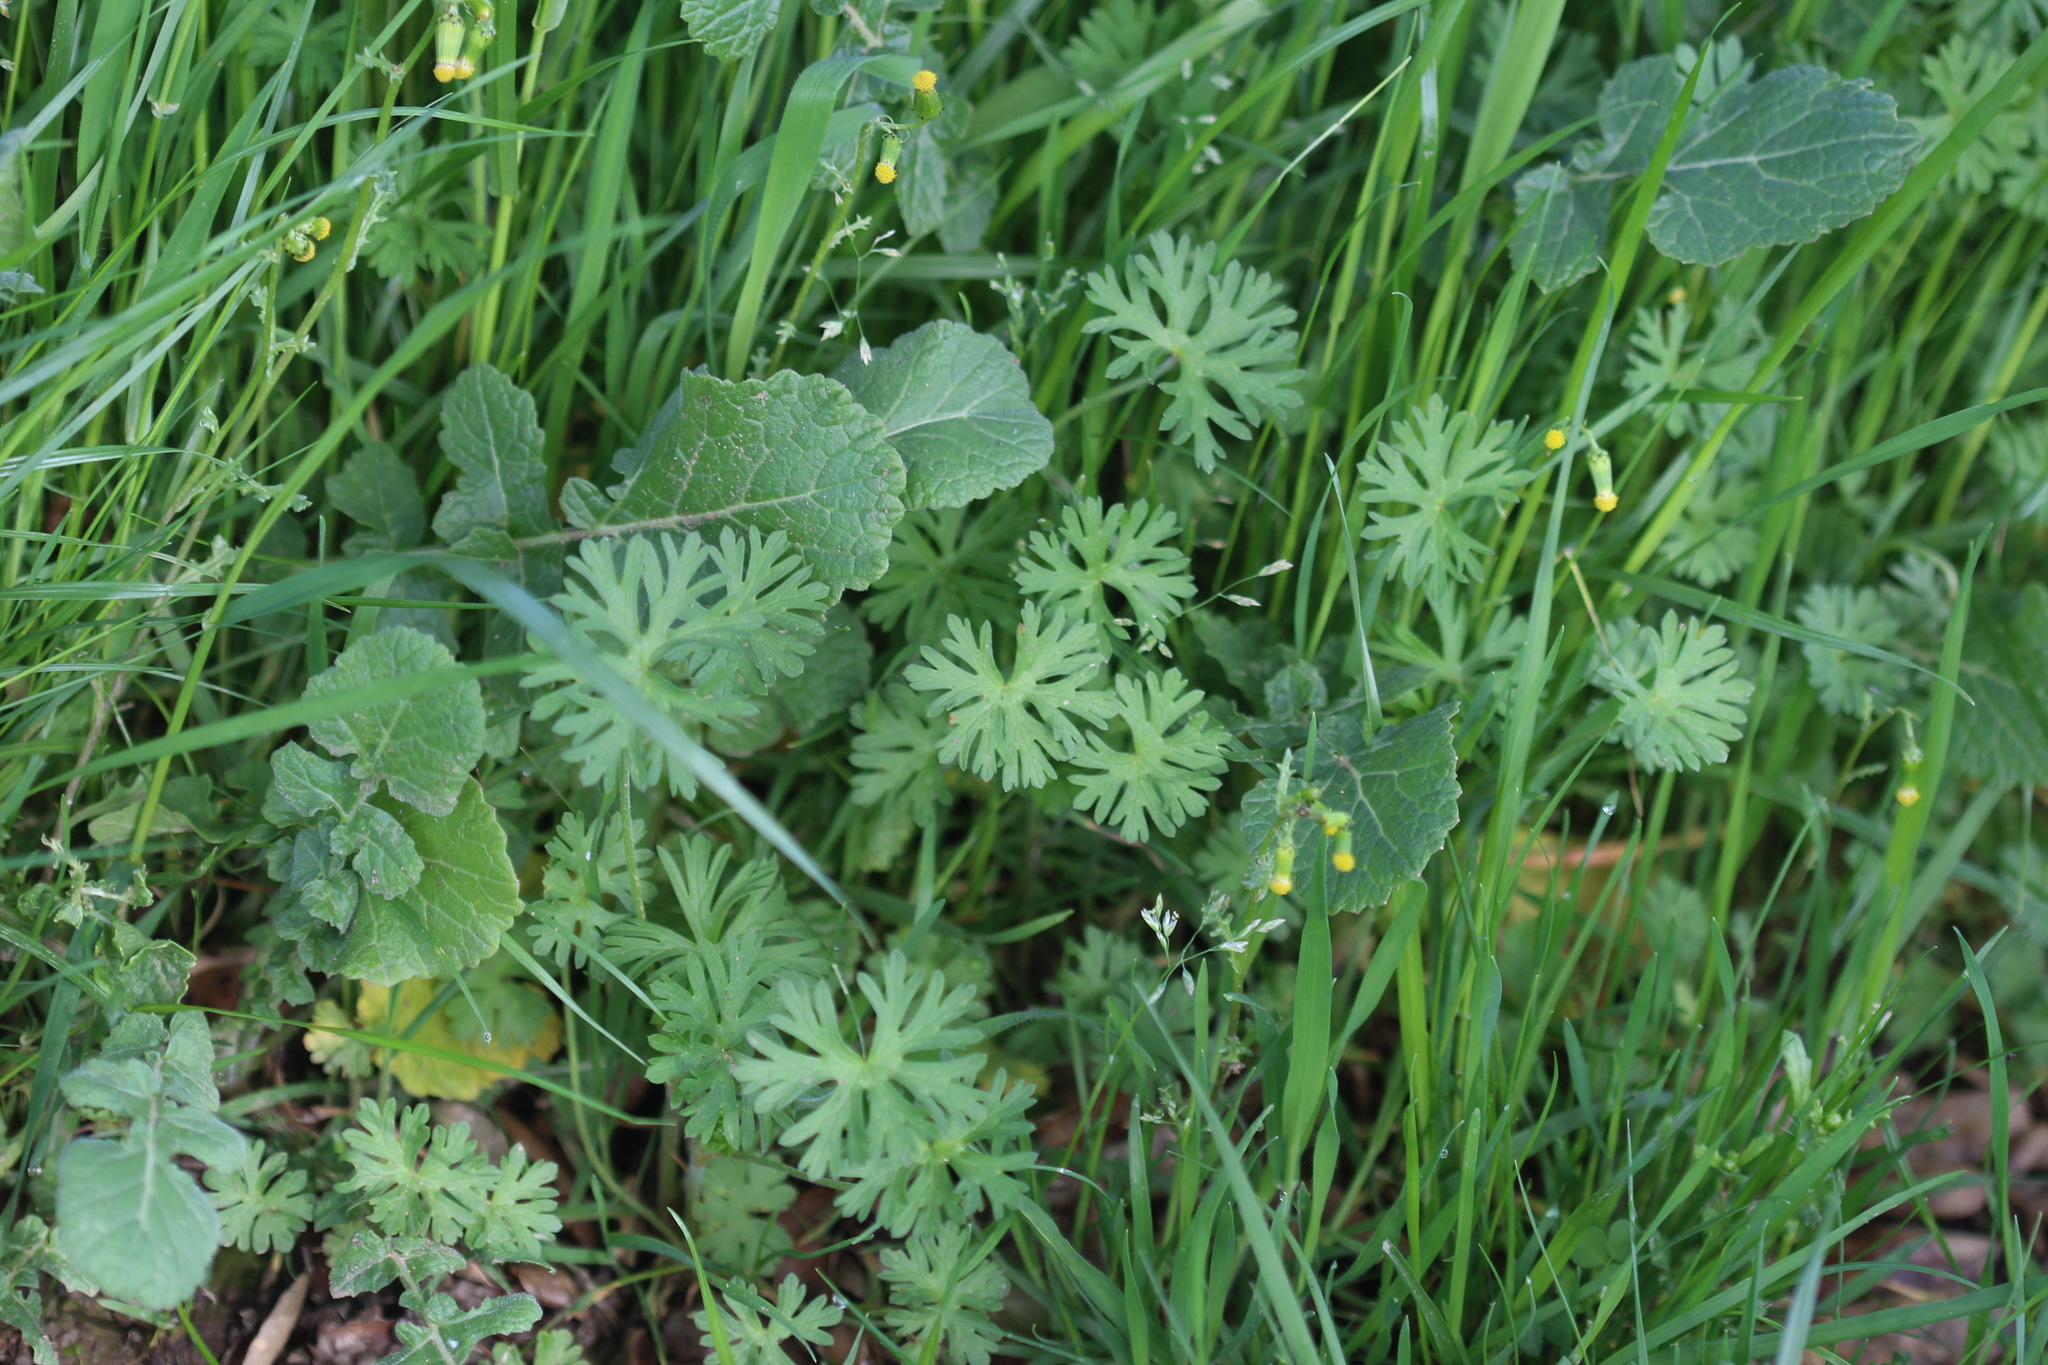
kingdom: Plantae
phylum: Tracheophyta
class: Magnoliopsida
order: Geraniales
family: Geraniaceae
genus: Geranium
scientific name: Geranium
